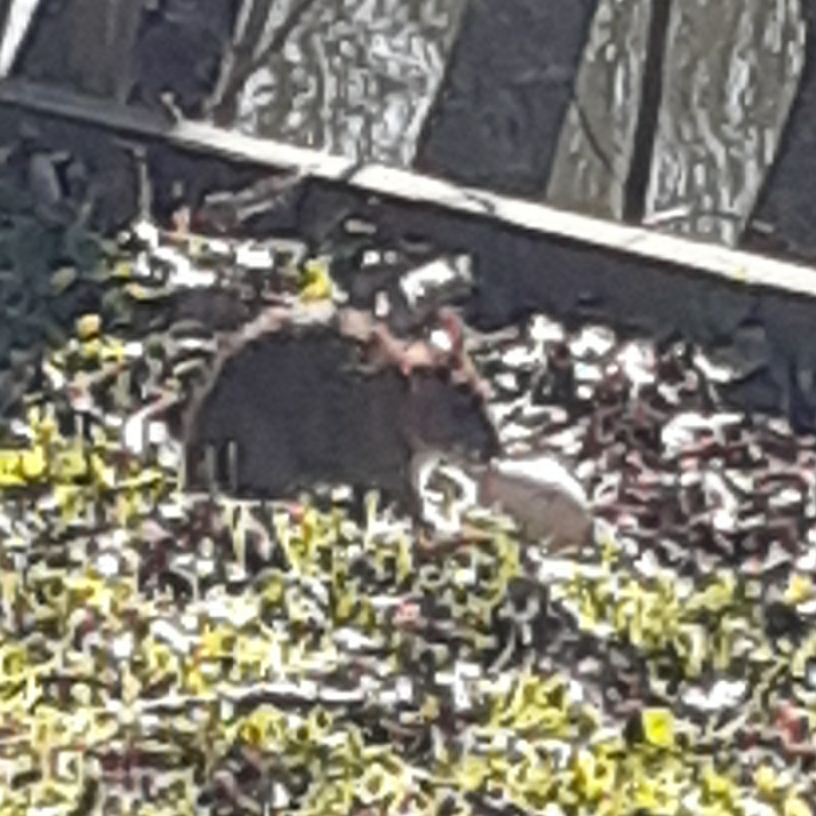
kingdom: Animalia
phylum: Chordata
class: Mammalia
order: Rodentia
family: Muridae
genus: Rattus
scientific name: Rattus norvegicus
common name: Brown rat
